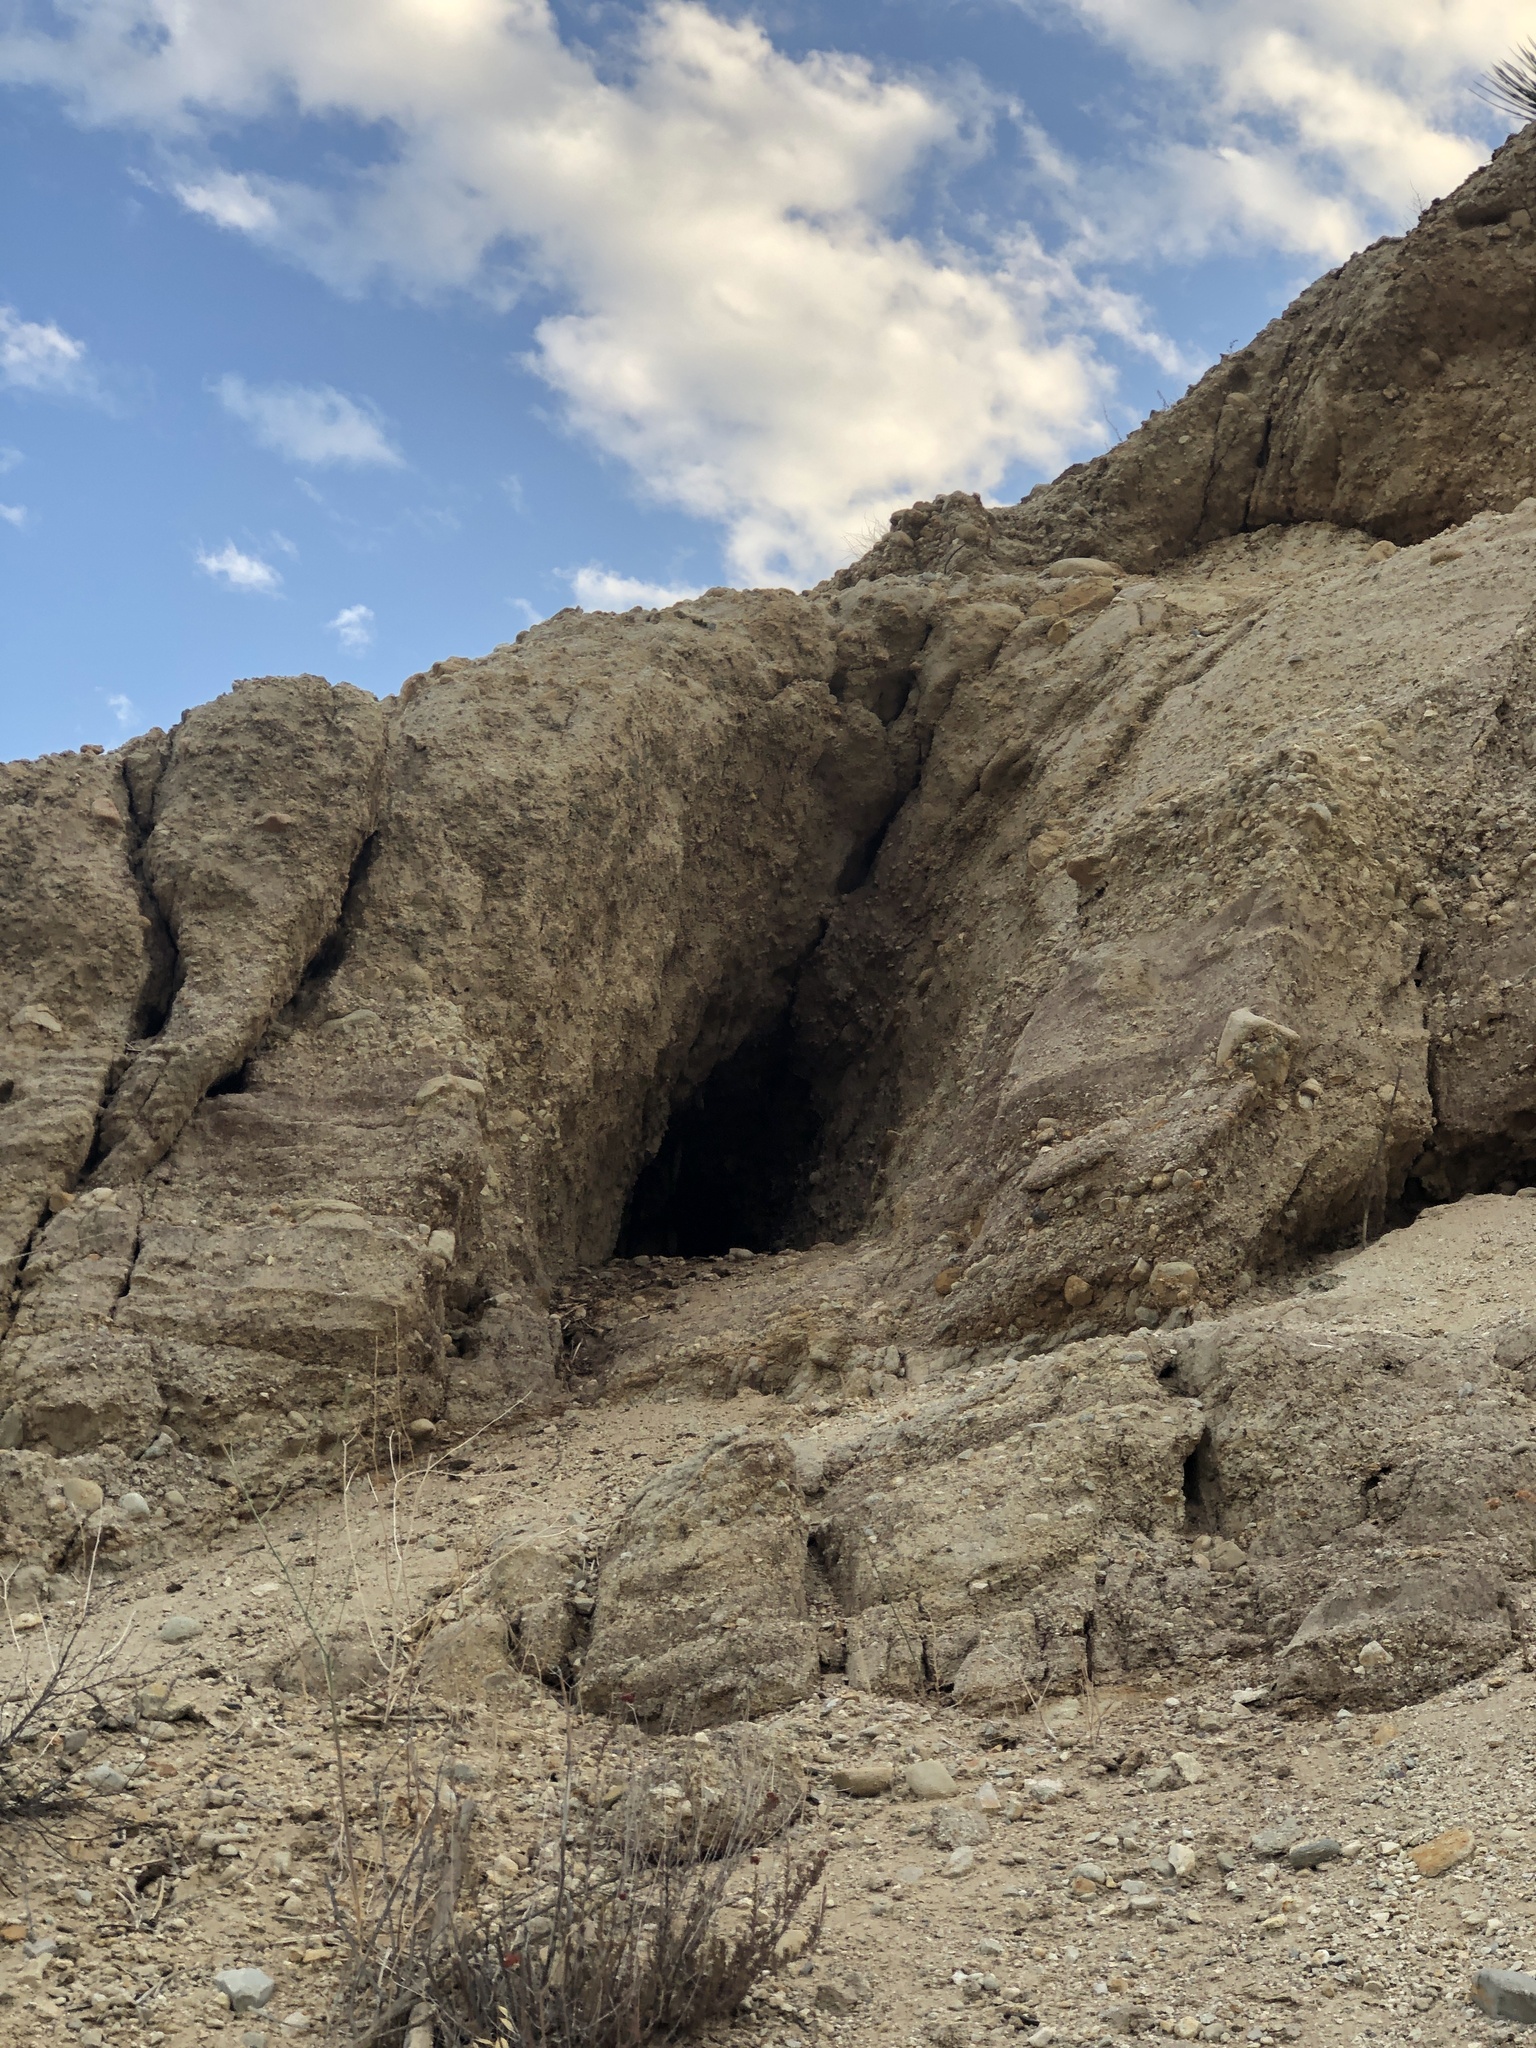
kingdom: Animalia
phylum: Arthropoda
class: Insecta
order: Hymenoptera
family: Apidae
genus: Apis
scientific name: Apis mellifera
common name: Honey bee
